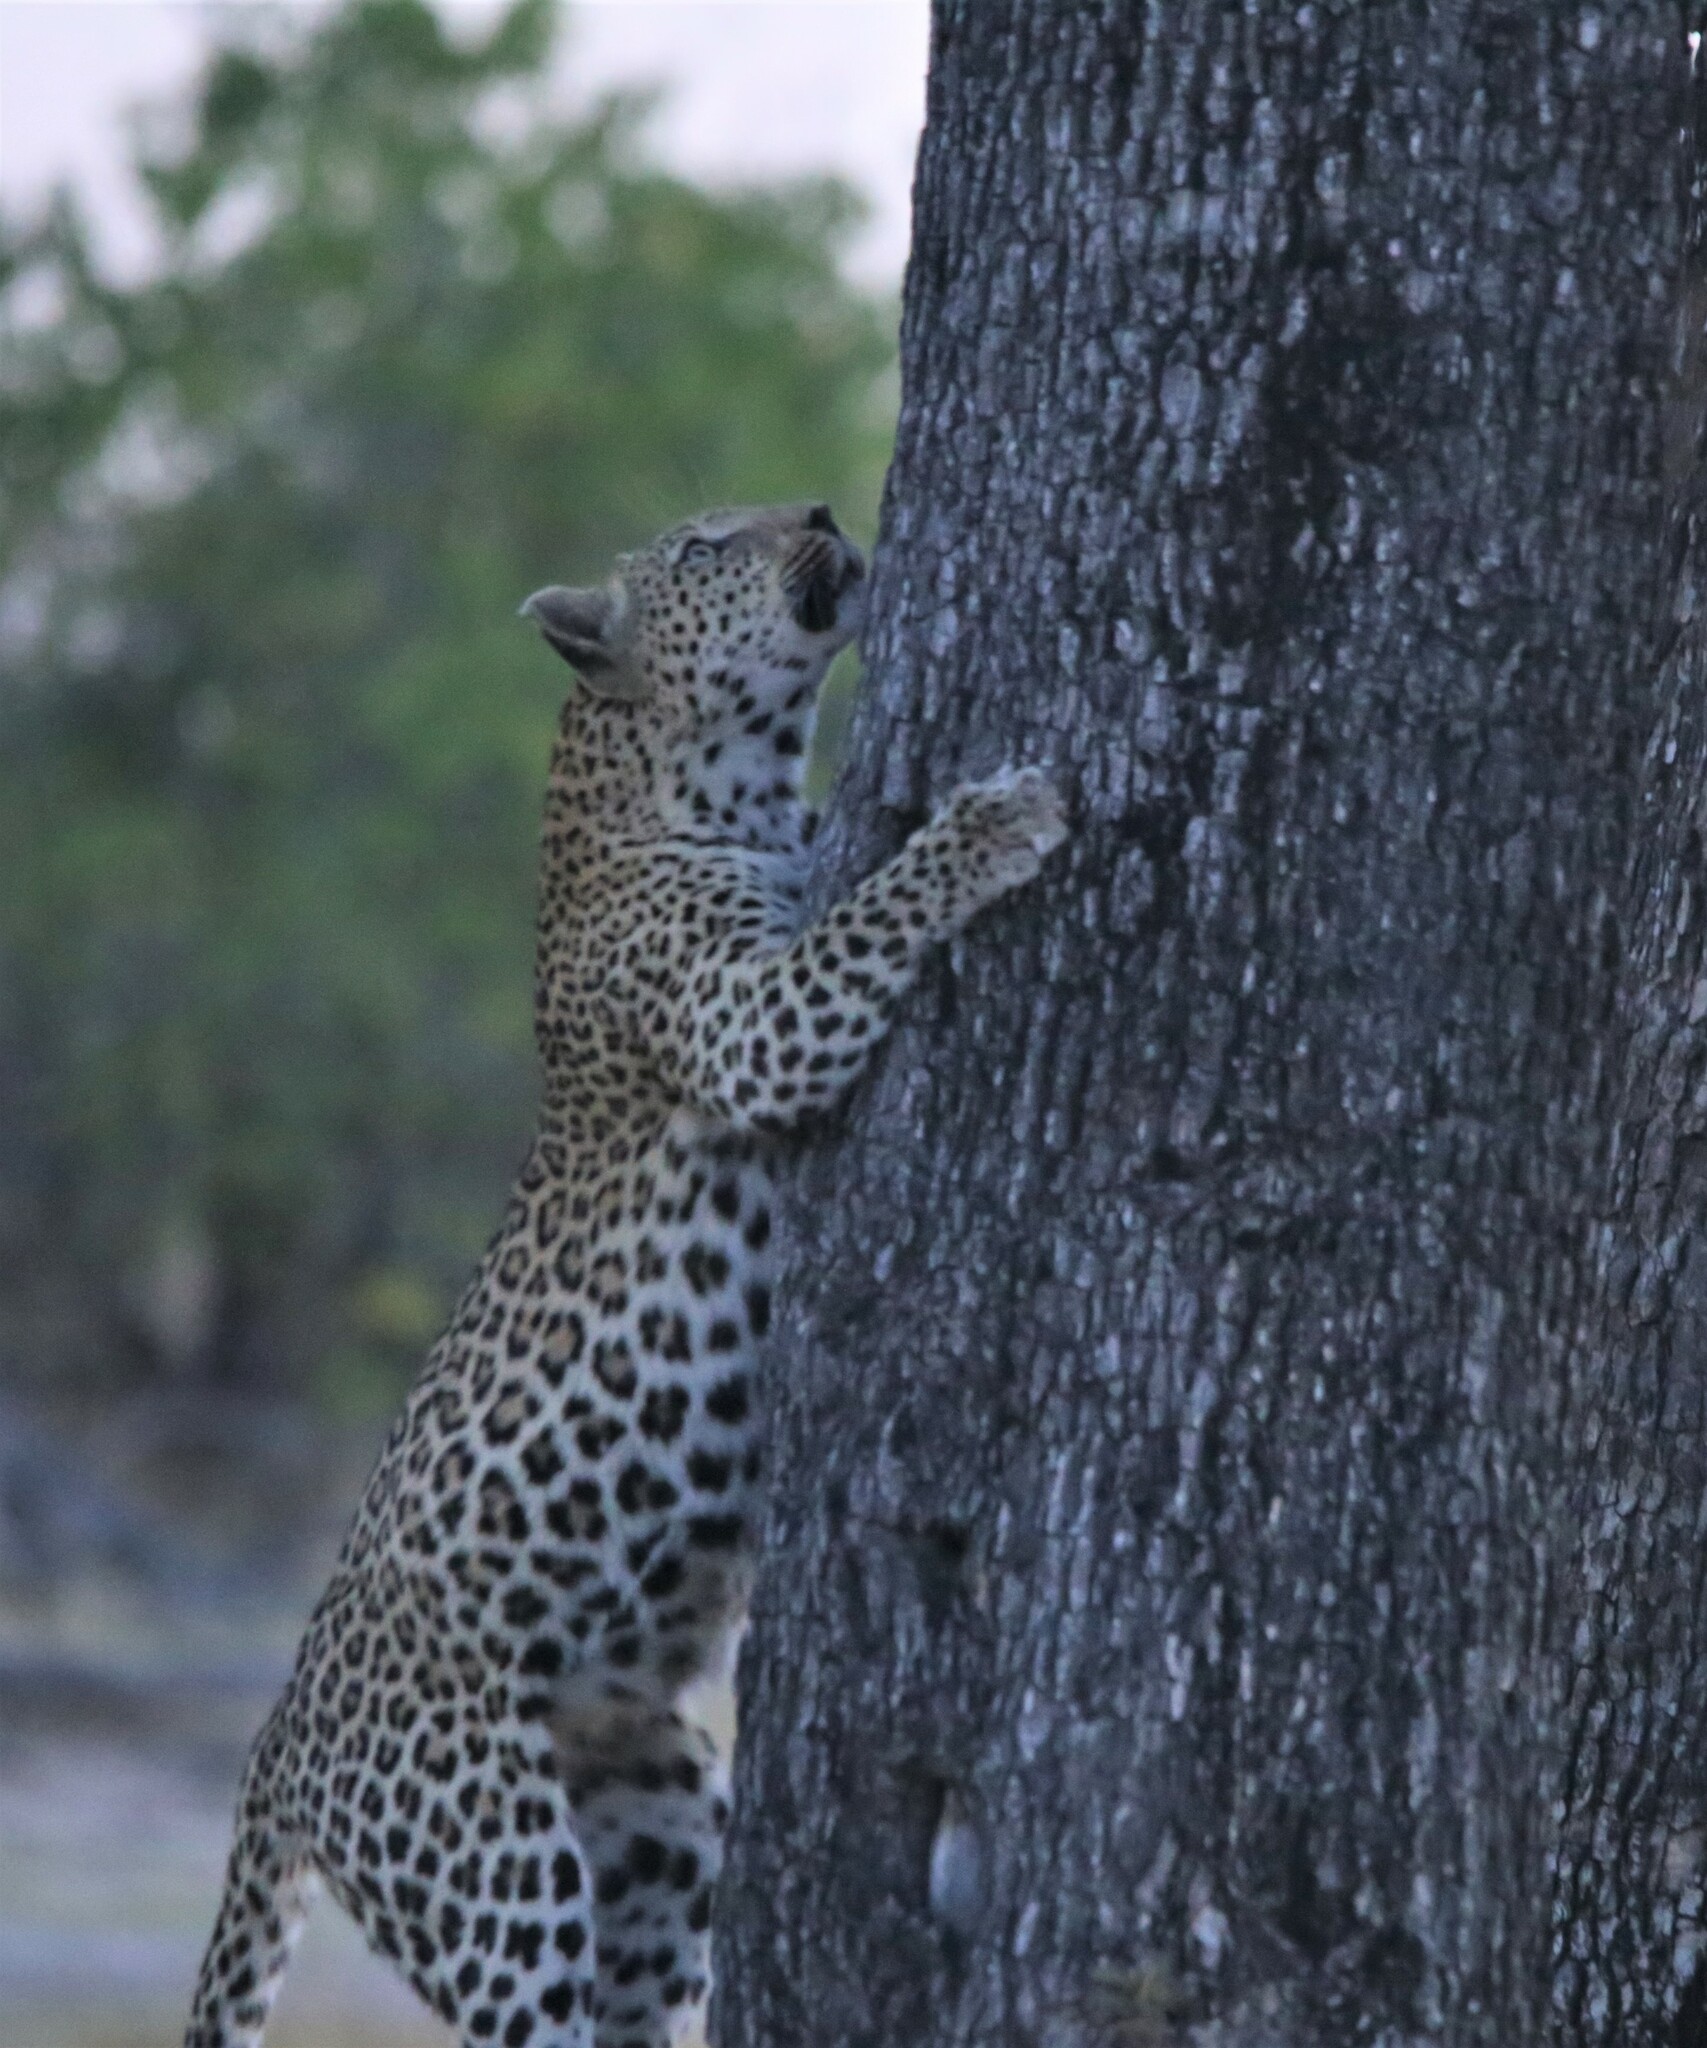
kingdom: Animalia
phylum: Chordata
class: Mammalia
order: Carnivora
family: Felidae
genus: Panthera
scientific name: Panthera pardus
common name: Leopard
